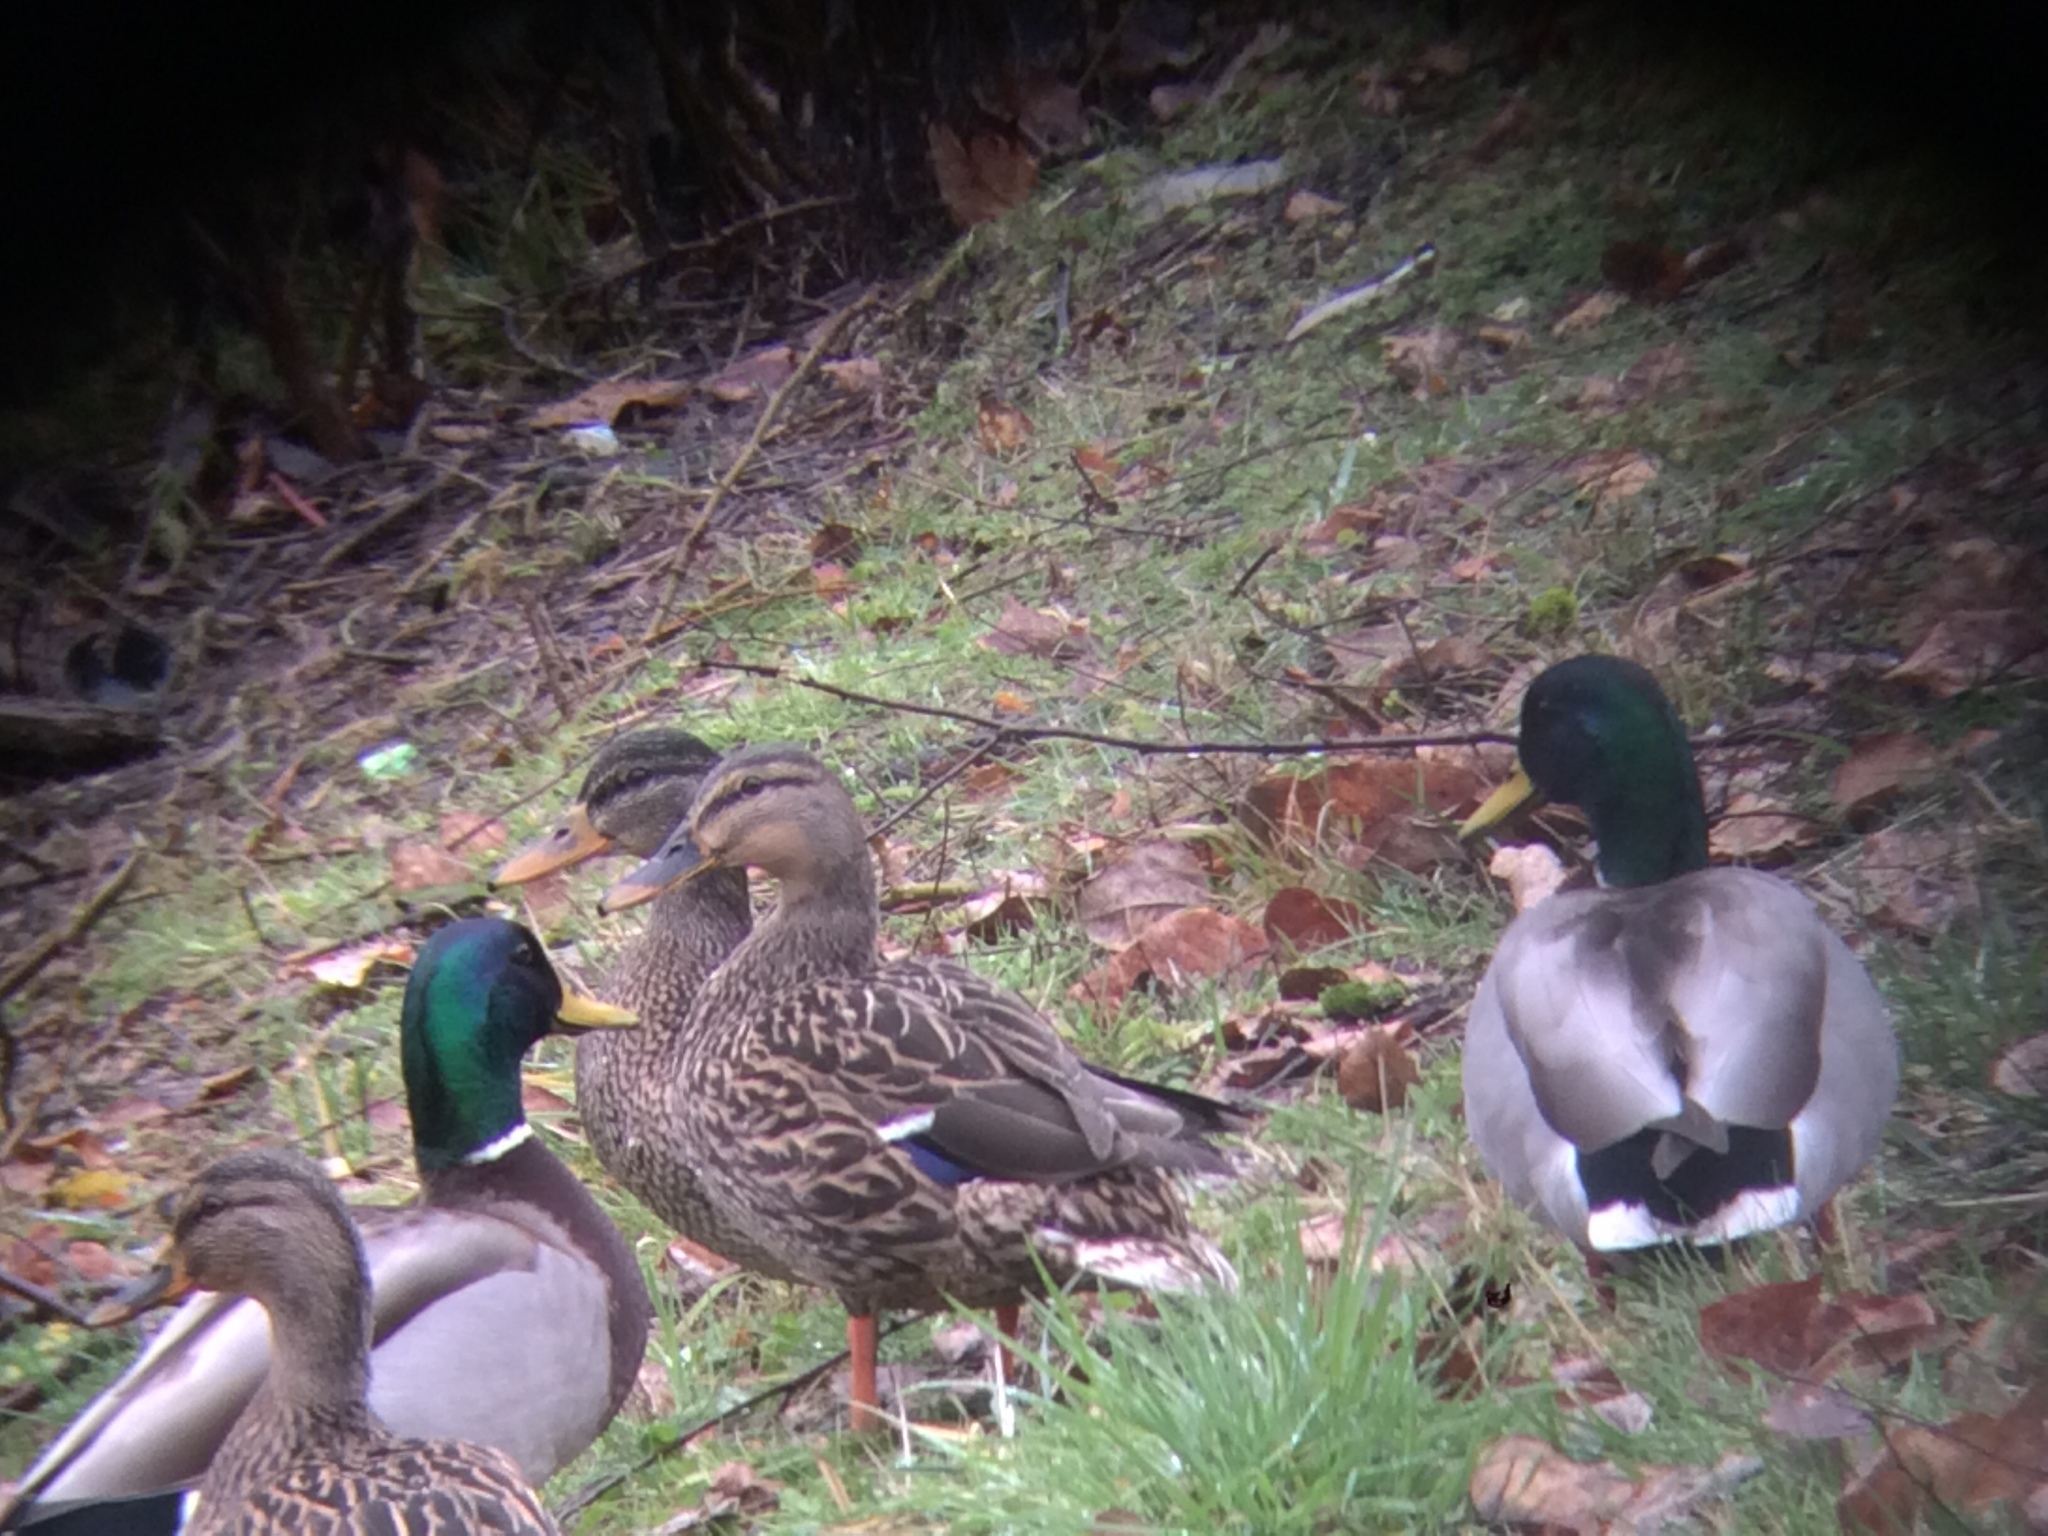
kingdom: Animalia
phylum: Chordata
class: Aves
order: Anseriformes
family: Anatidae
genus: Anas
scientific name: Anas platyrhynchos
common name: Mallard
